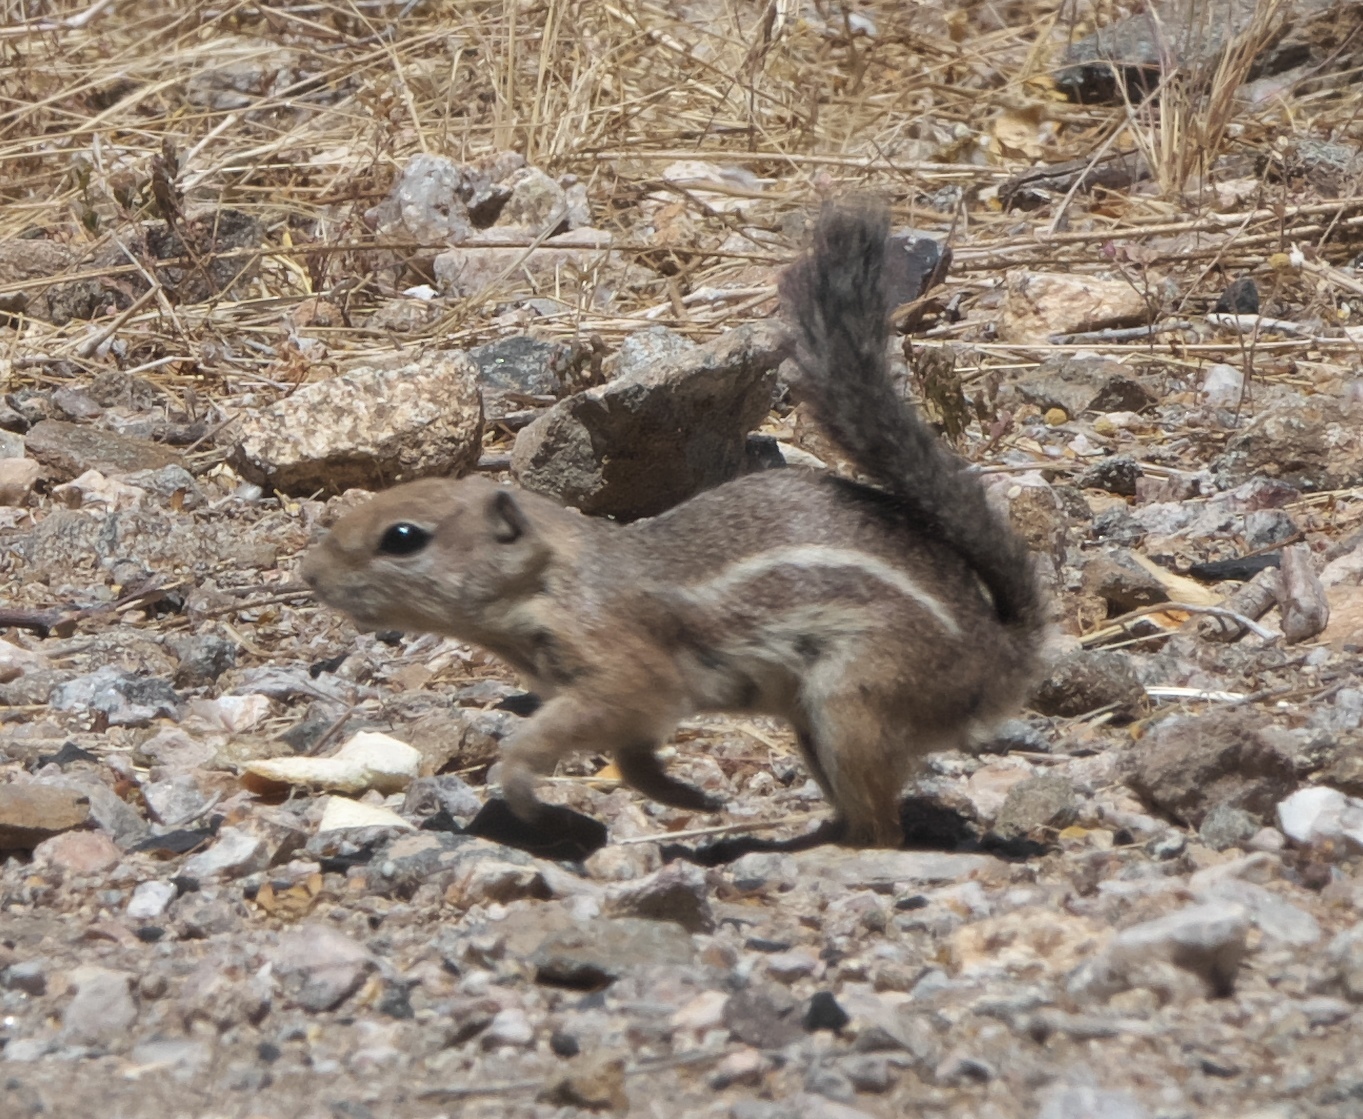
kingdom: Animalia
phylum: Chordata
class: Mammalia
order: Rodentia
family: Sciuridae
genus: Ammospermophilus
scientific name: Ammospermophilus harrisii
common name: Harris's antelope squirrel
